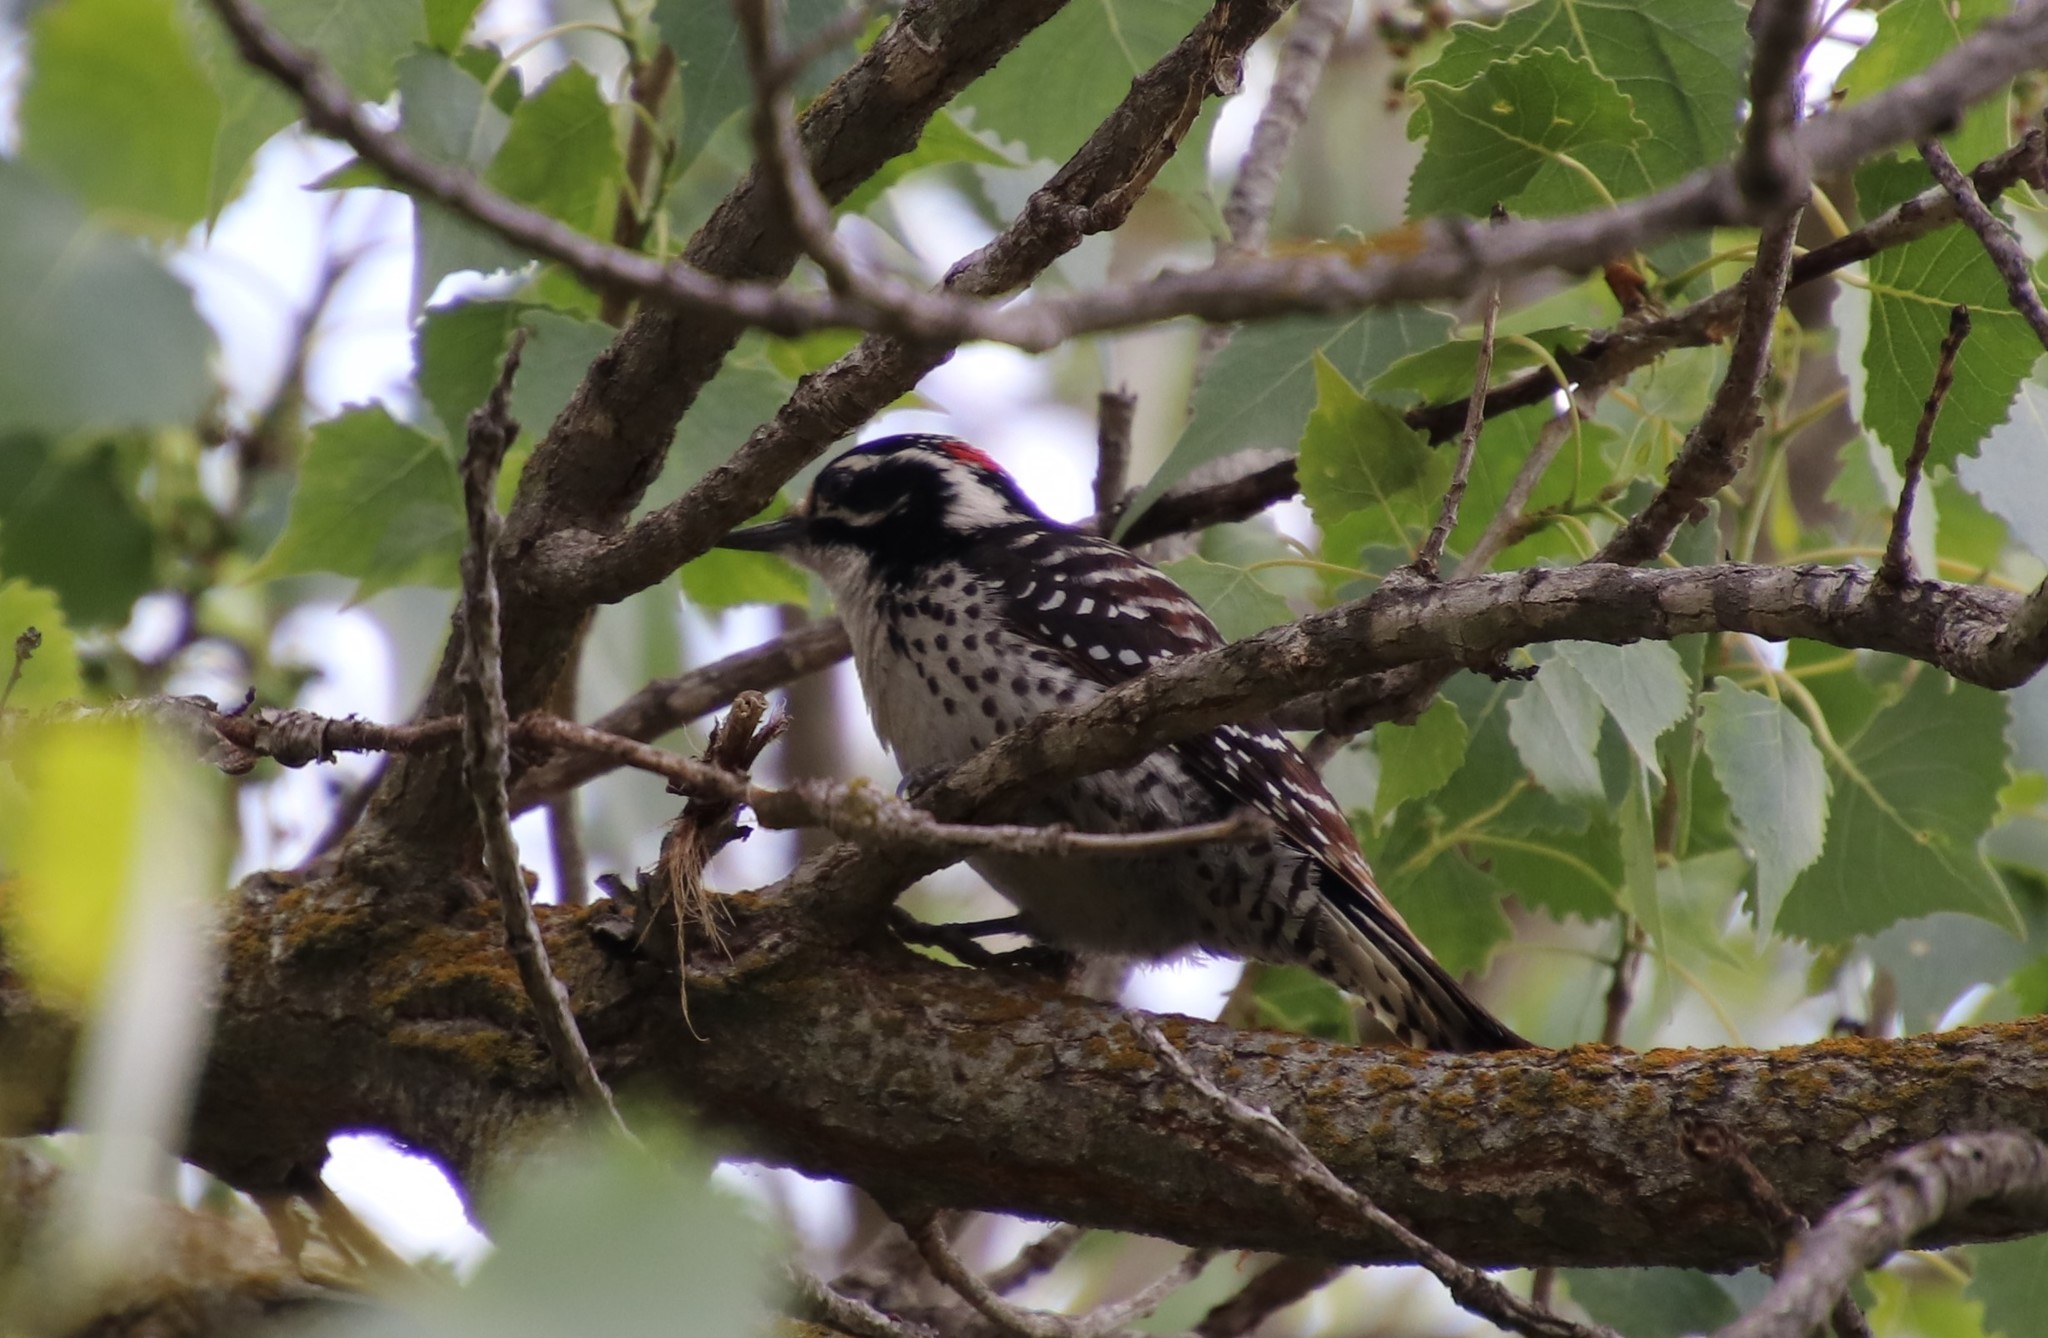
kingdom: Animalia
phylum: Chordata
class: Aves
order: Piciformes
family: Picidae
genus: Dryobates
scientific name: Dryobates nuttallii
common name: Nuttall's woodpecker
